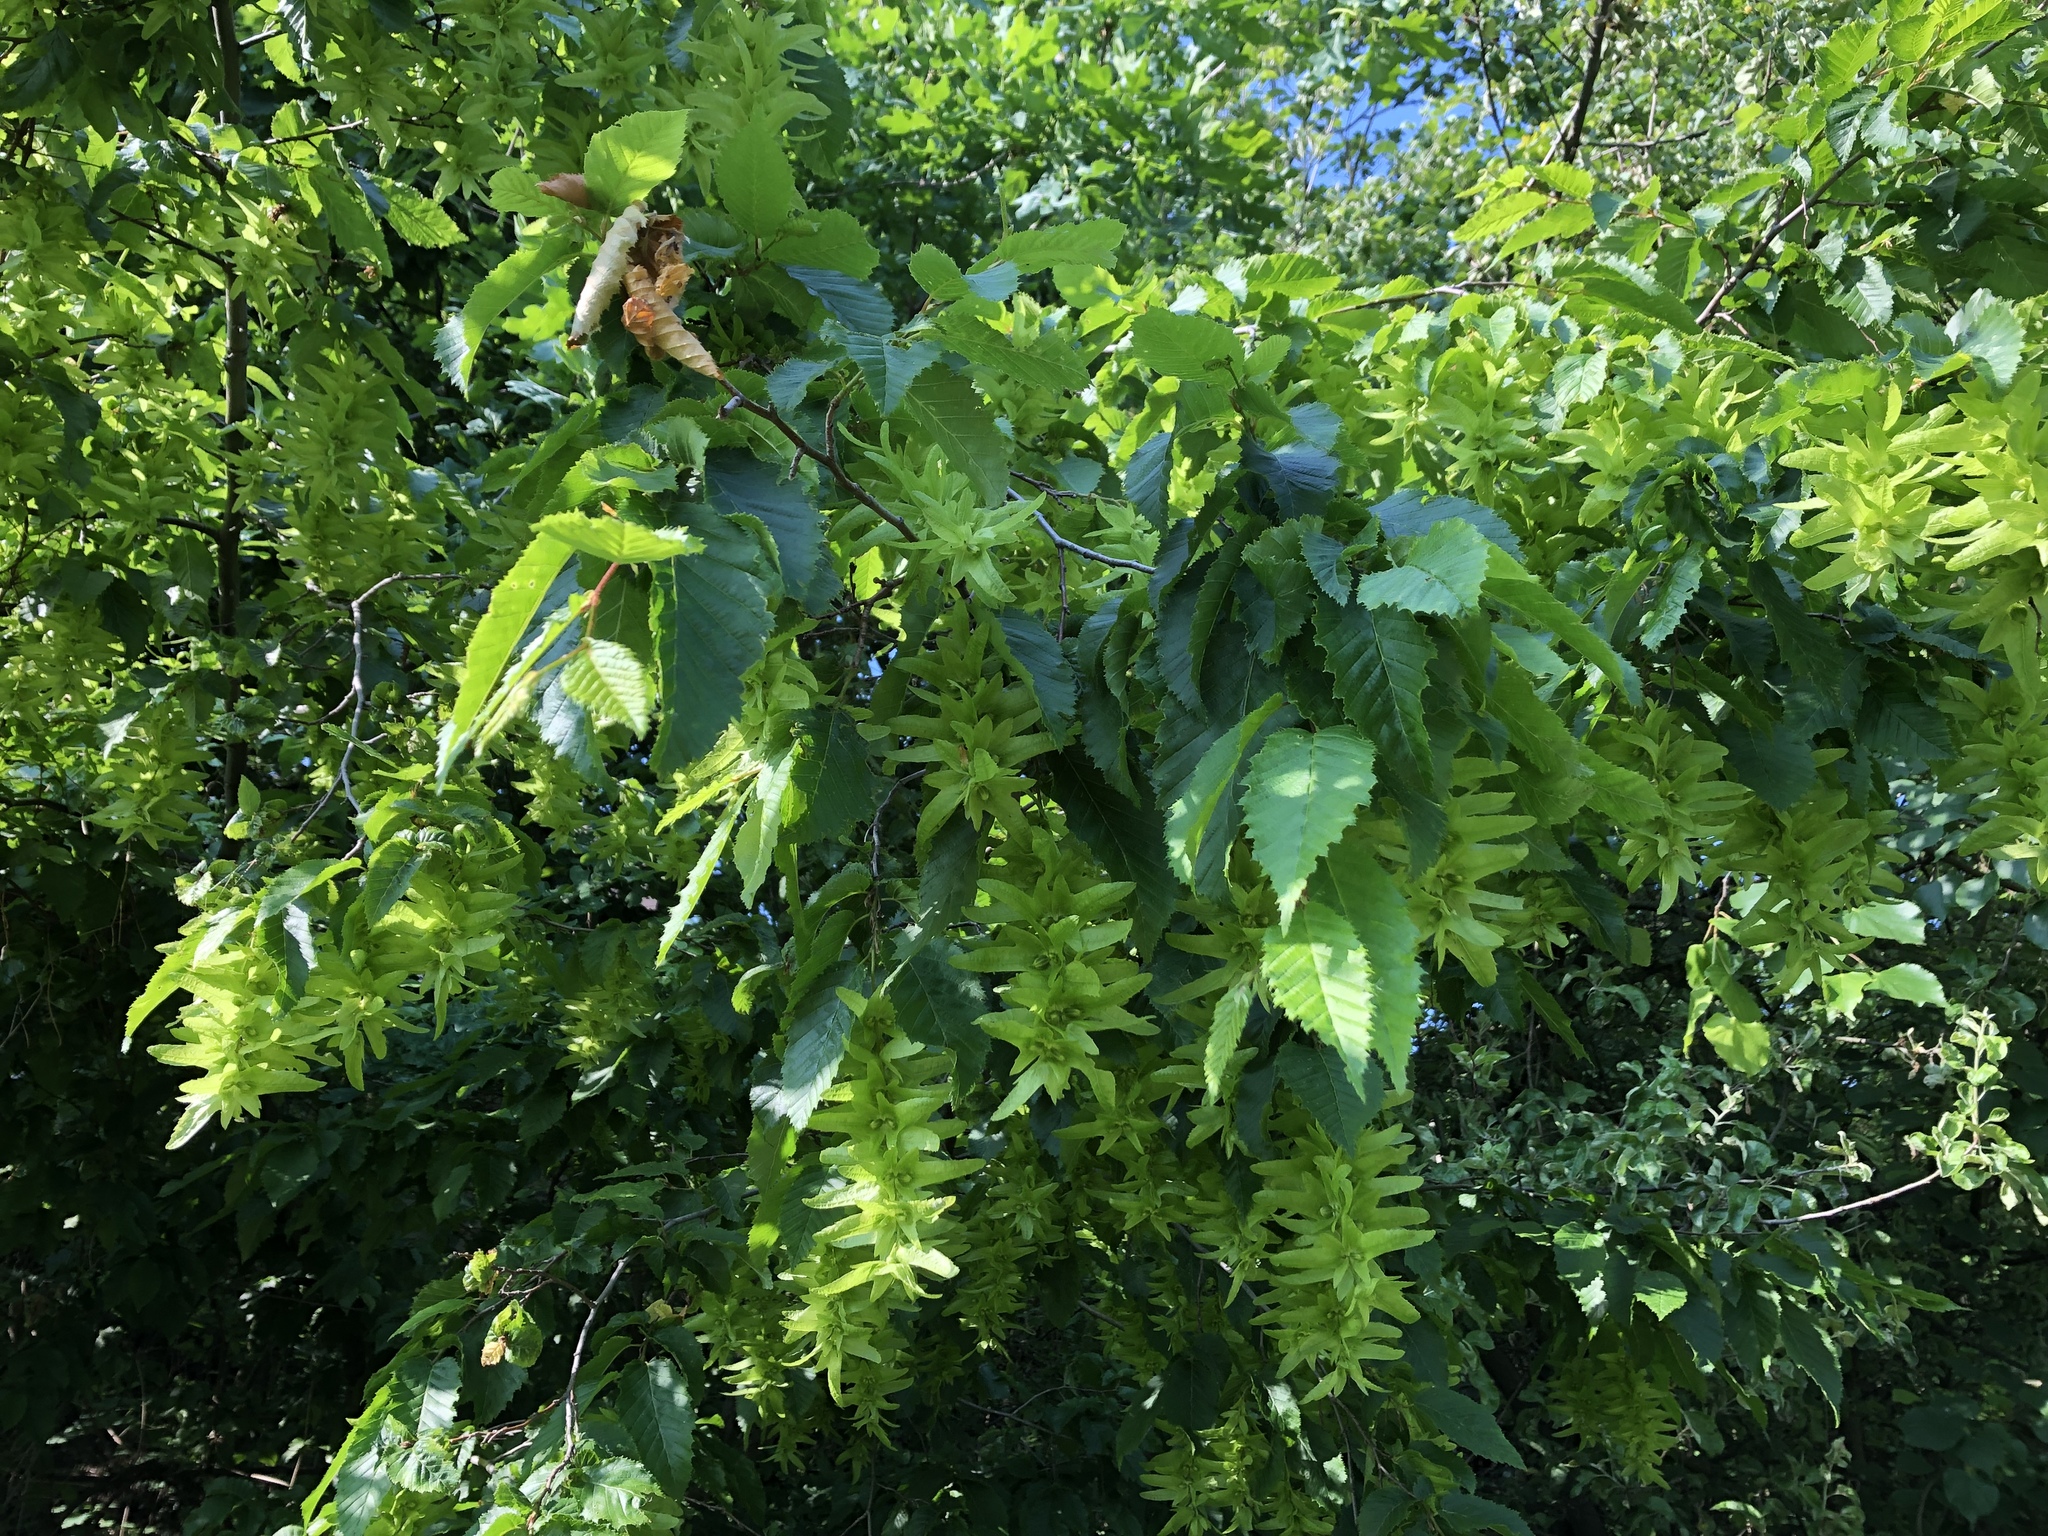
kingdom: Plantae
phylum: Tracheophyta
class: Magnoliopsida
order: Fagales
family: Betulaceae
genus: Carpinus
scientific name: Carpinus betulus
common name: Hornbeam
